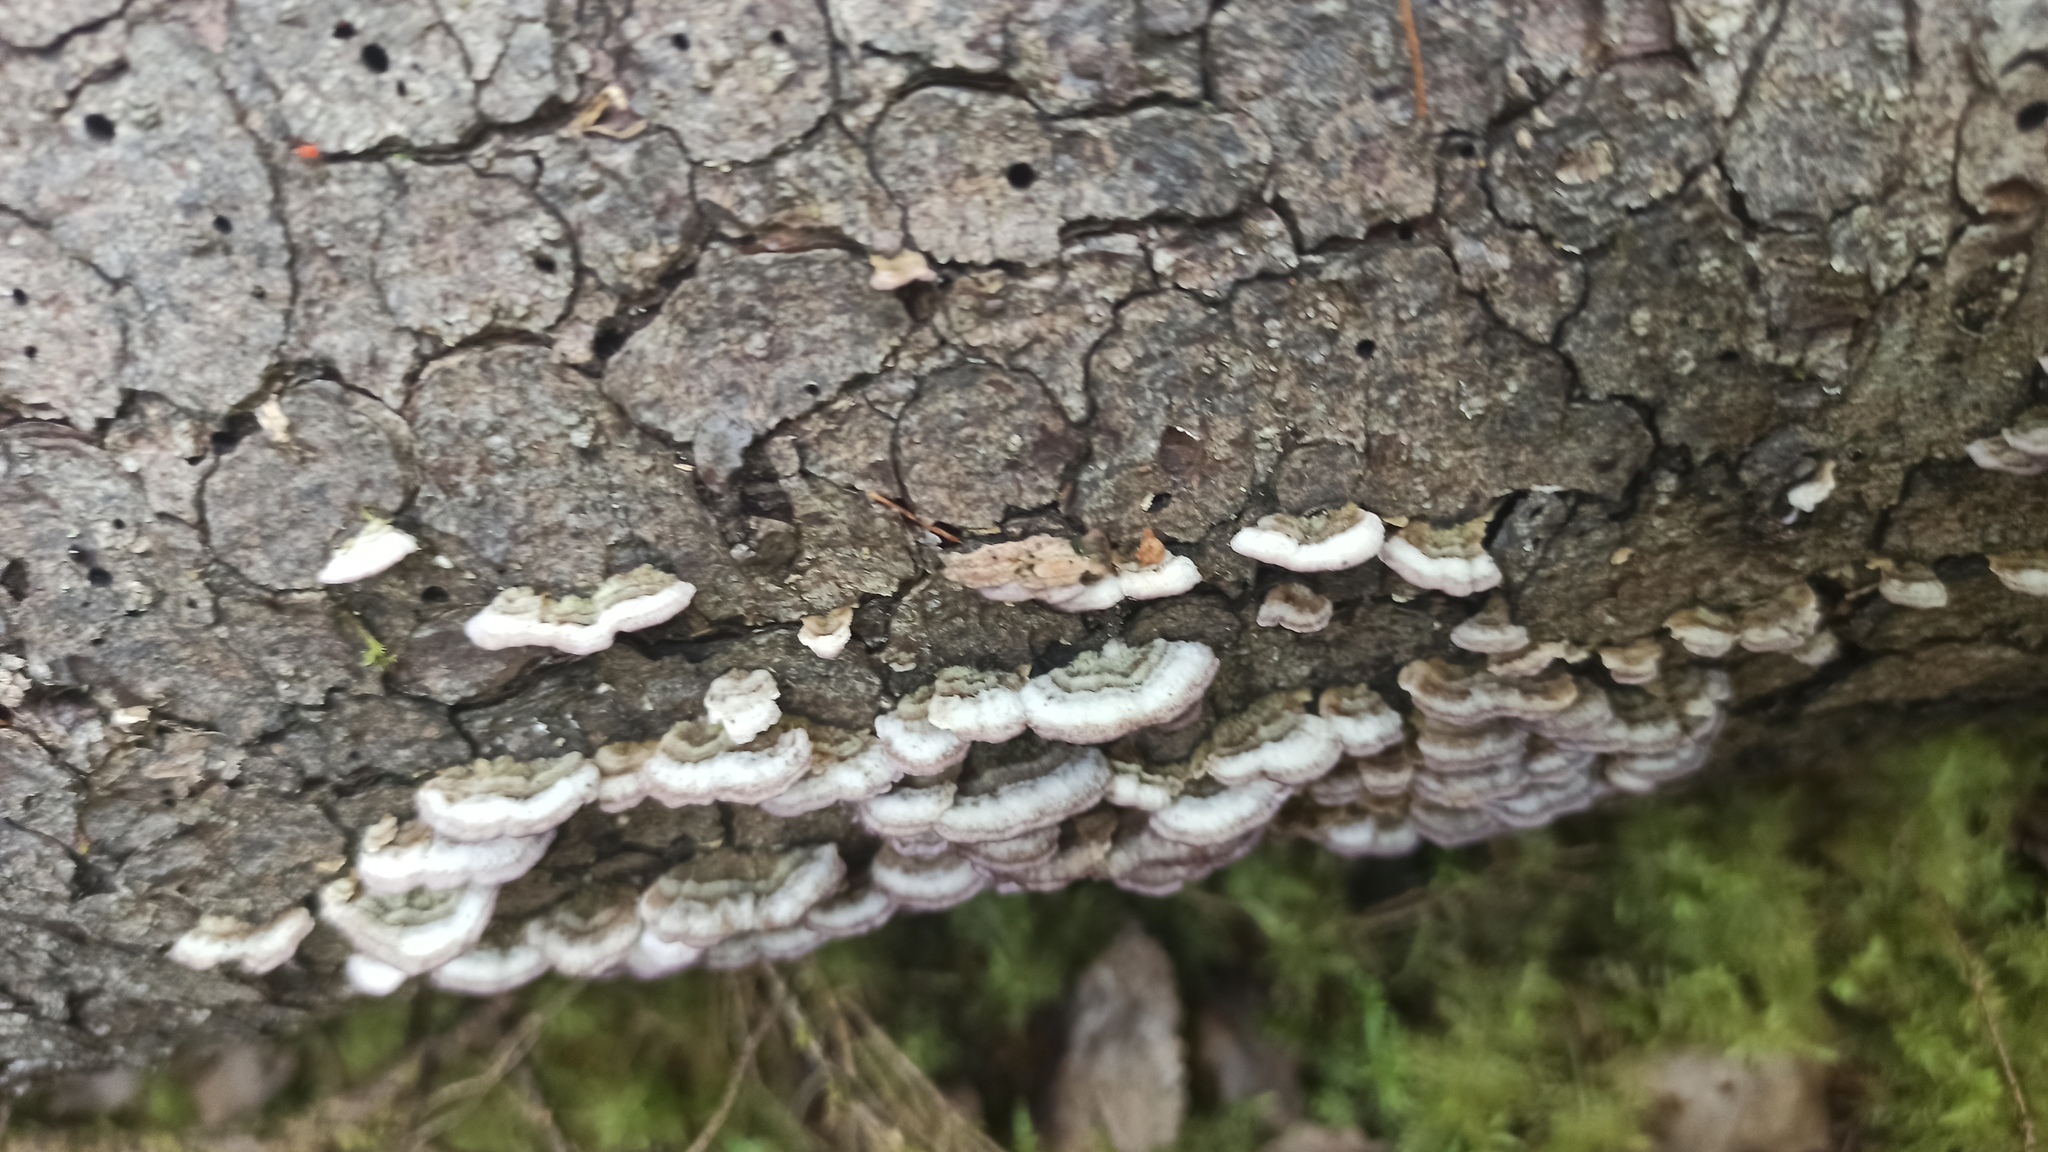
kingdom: Fungi
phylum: Basidiomycota
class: Agaricomycetes
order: Hymenochaetales
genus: Trichaptum
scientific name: Trichaptum abietinum
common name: Purplepore bracket
